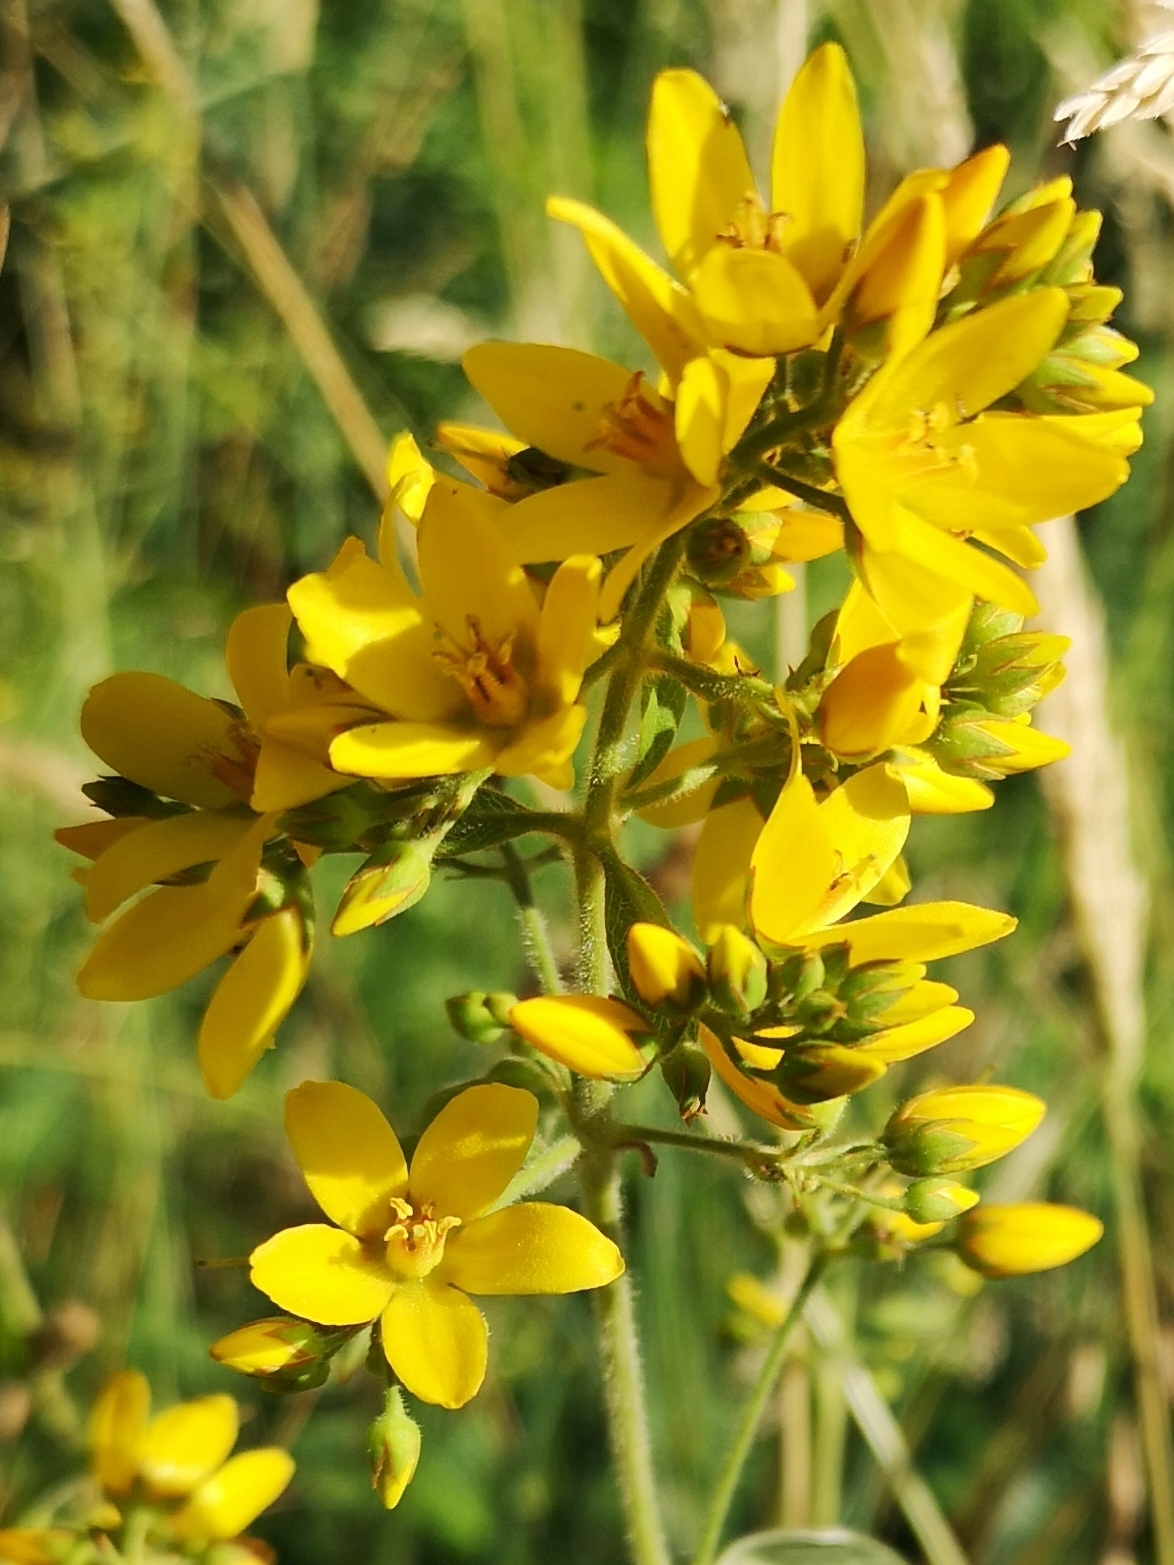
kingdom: Plantae
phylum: Tracheophyta
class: Magnoliopsida
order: Ericales
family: Primulaceae
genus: Lysimachia
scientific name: Lysimachia vulgaris
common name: Yellow loosestrife
